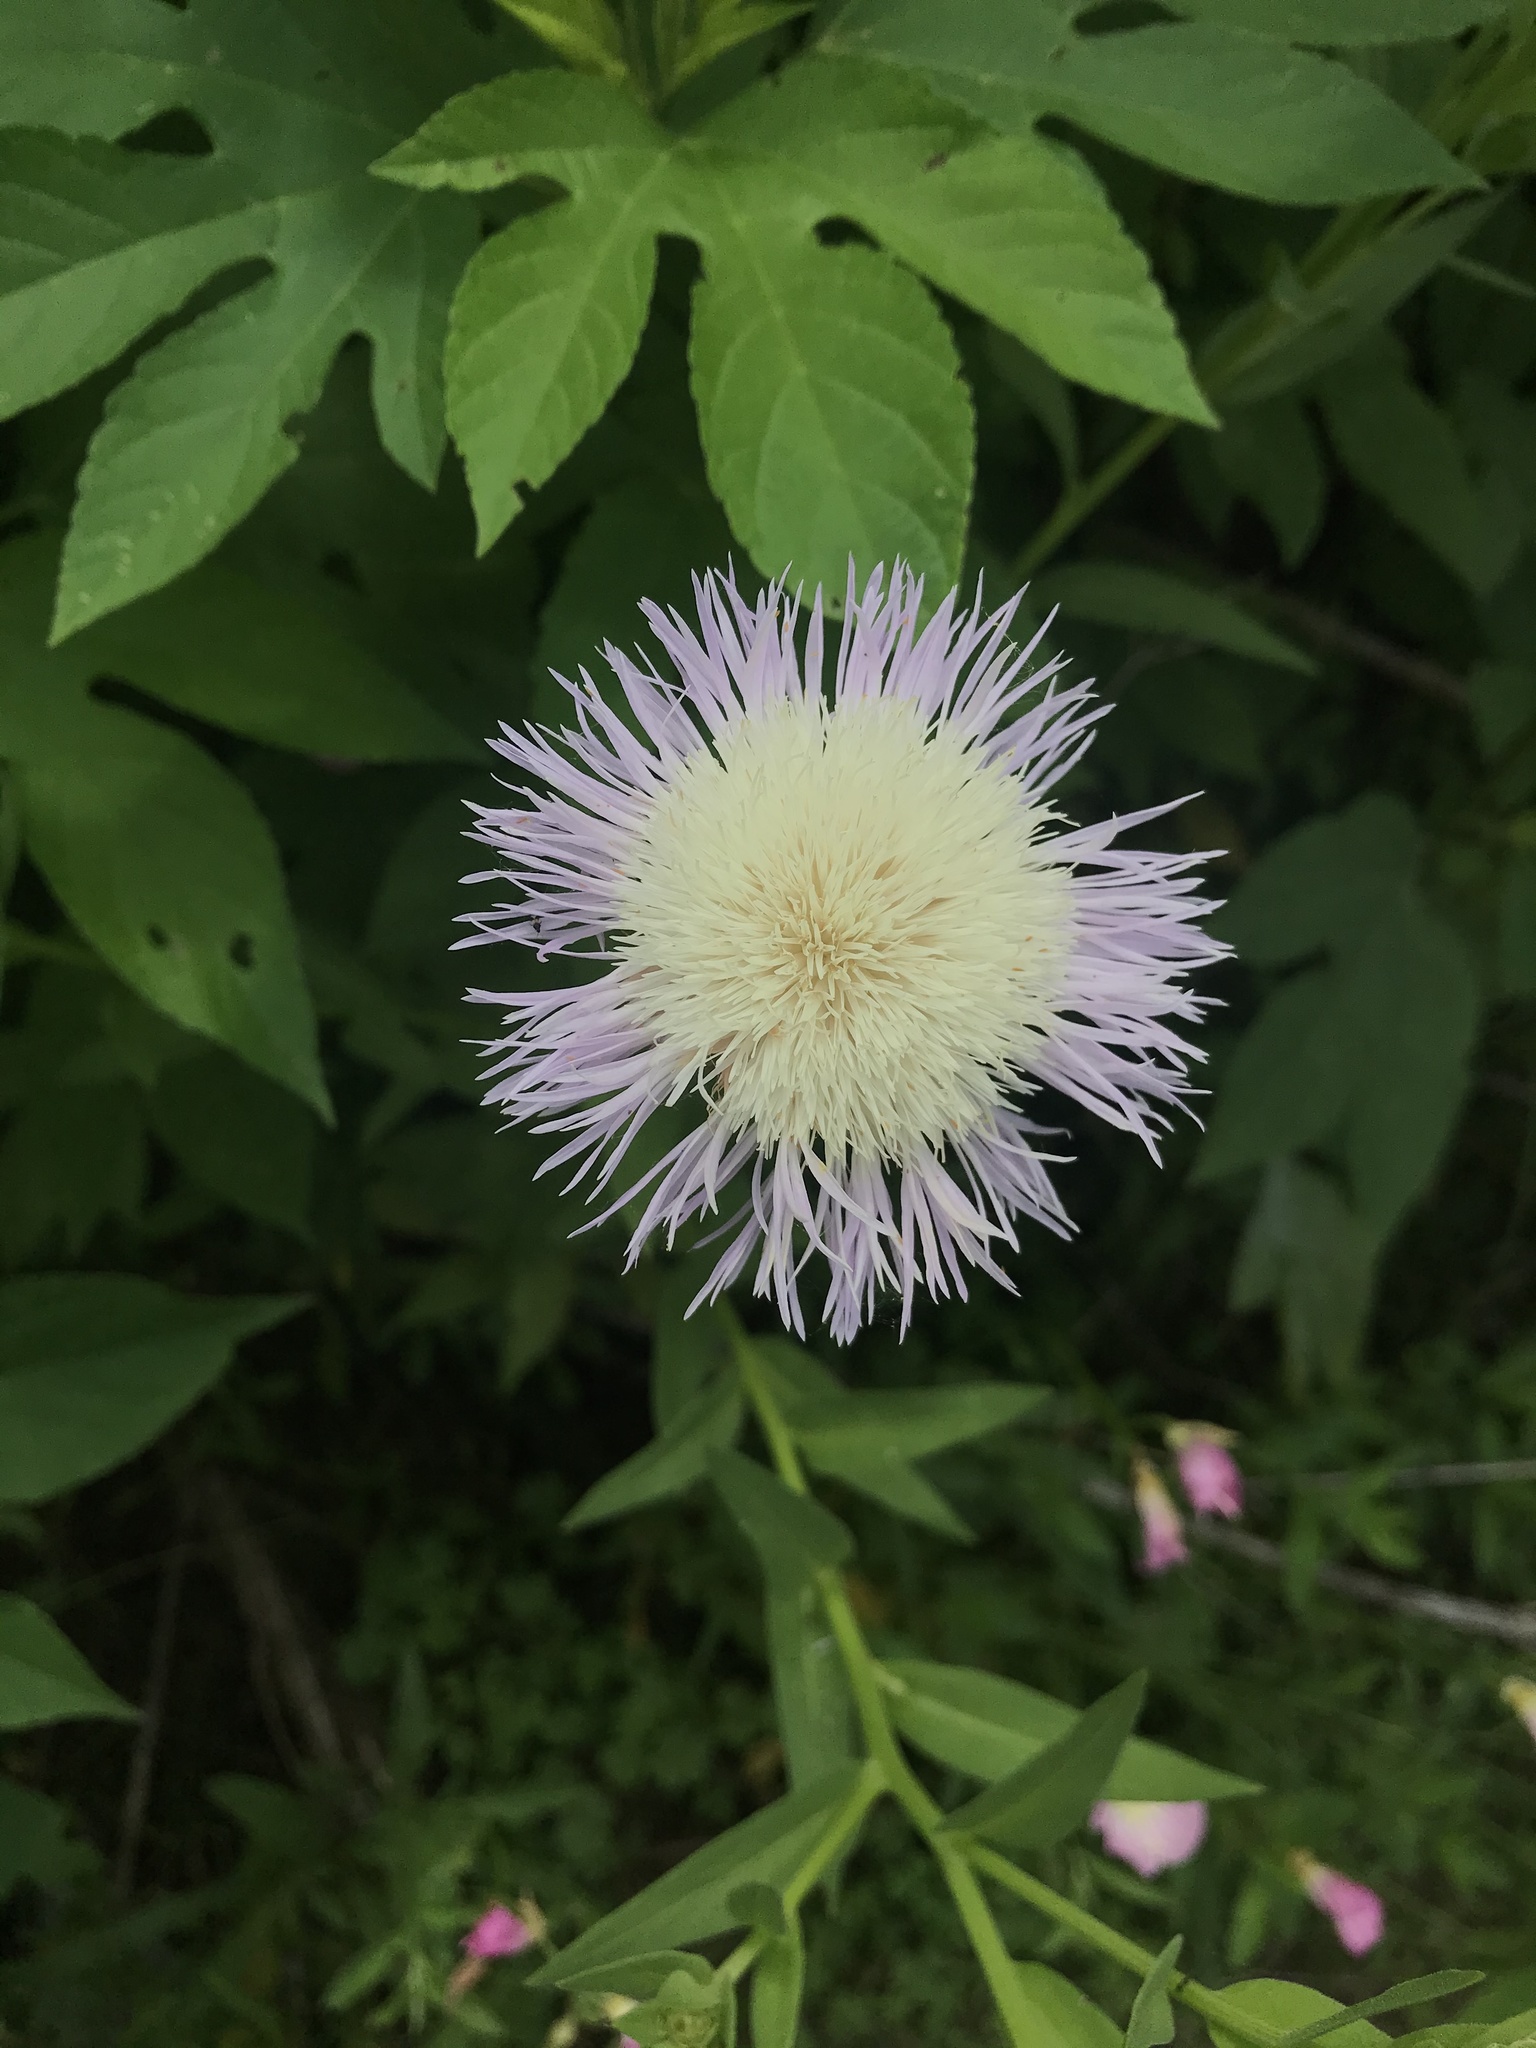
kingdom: Plantae
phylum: Tracheophyta
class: Magnoliopsida
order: Asterales
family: Asteraceae
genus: Plectocephalus
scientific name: Plectocephalus americanus
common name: American basket-flower
